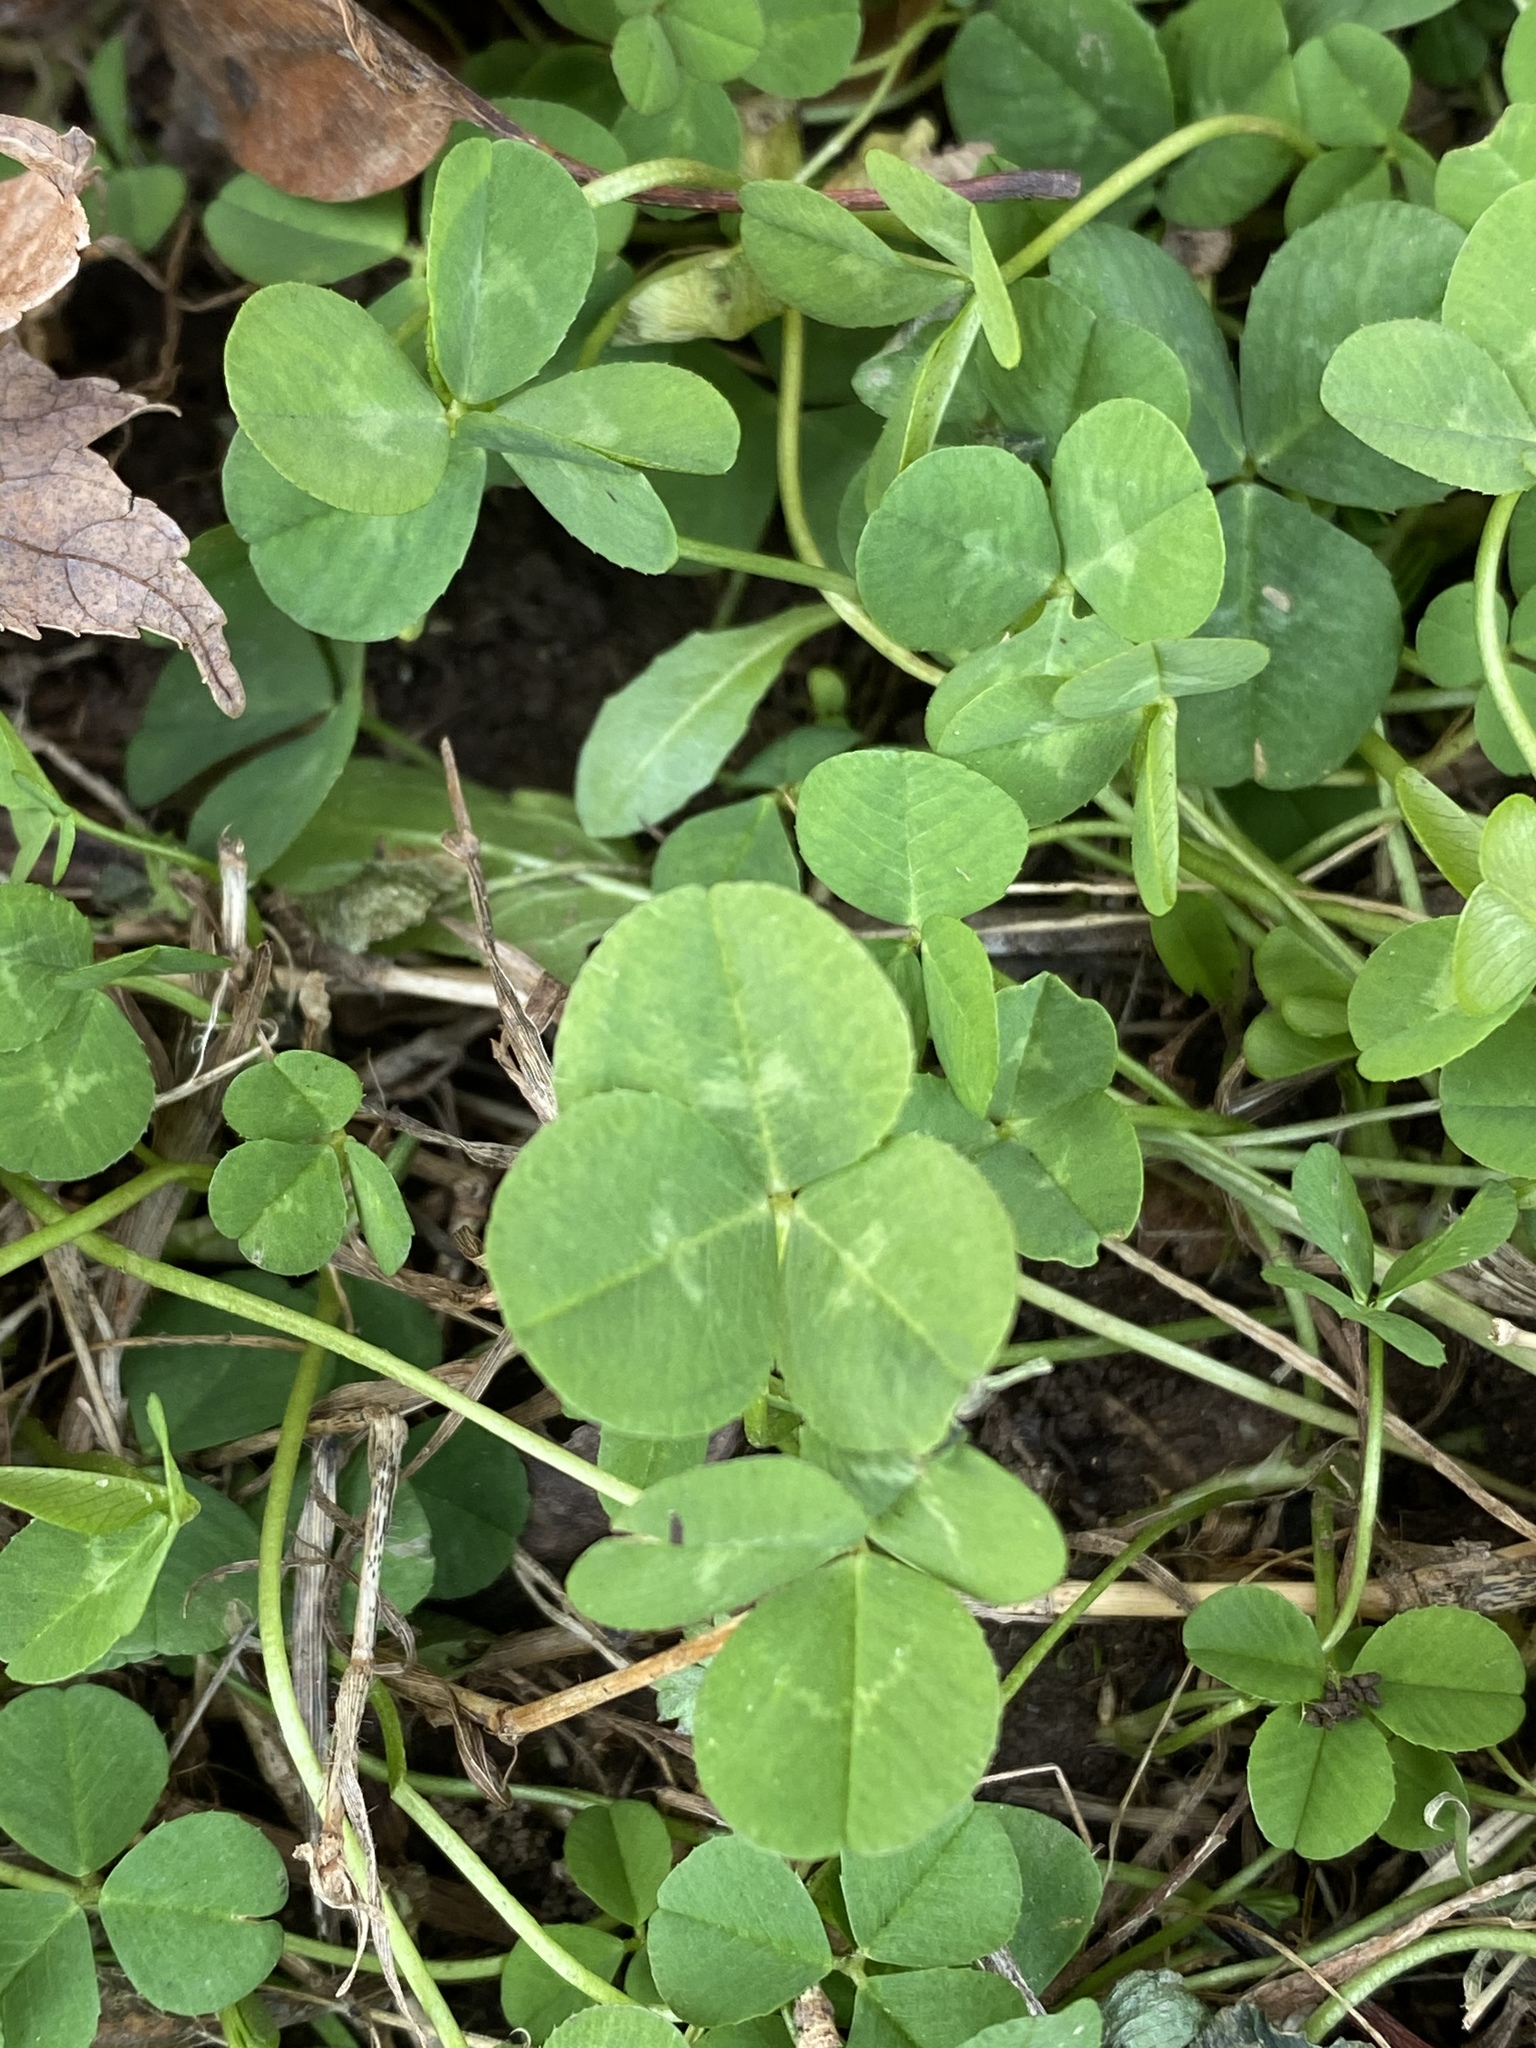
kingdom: Plantae
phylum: Tracheophyta
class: Magnoliopsida
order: Fabales
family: Fabaceae
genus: Trifolium
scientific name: Trifolium repens
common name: White clover
